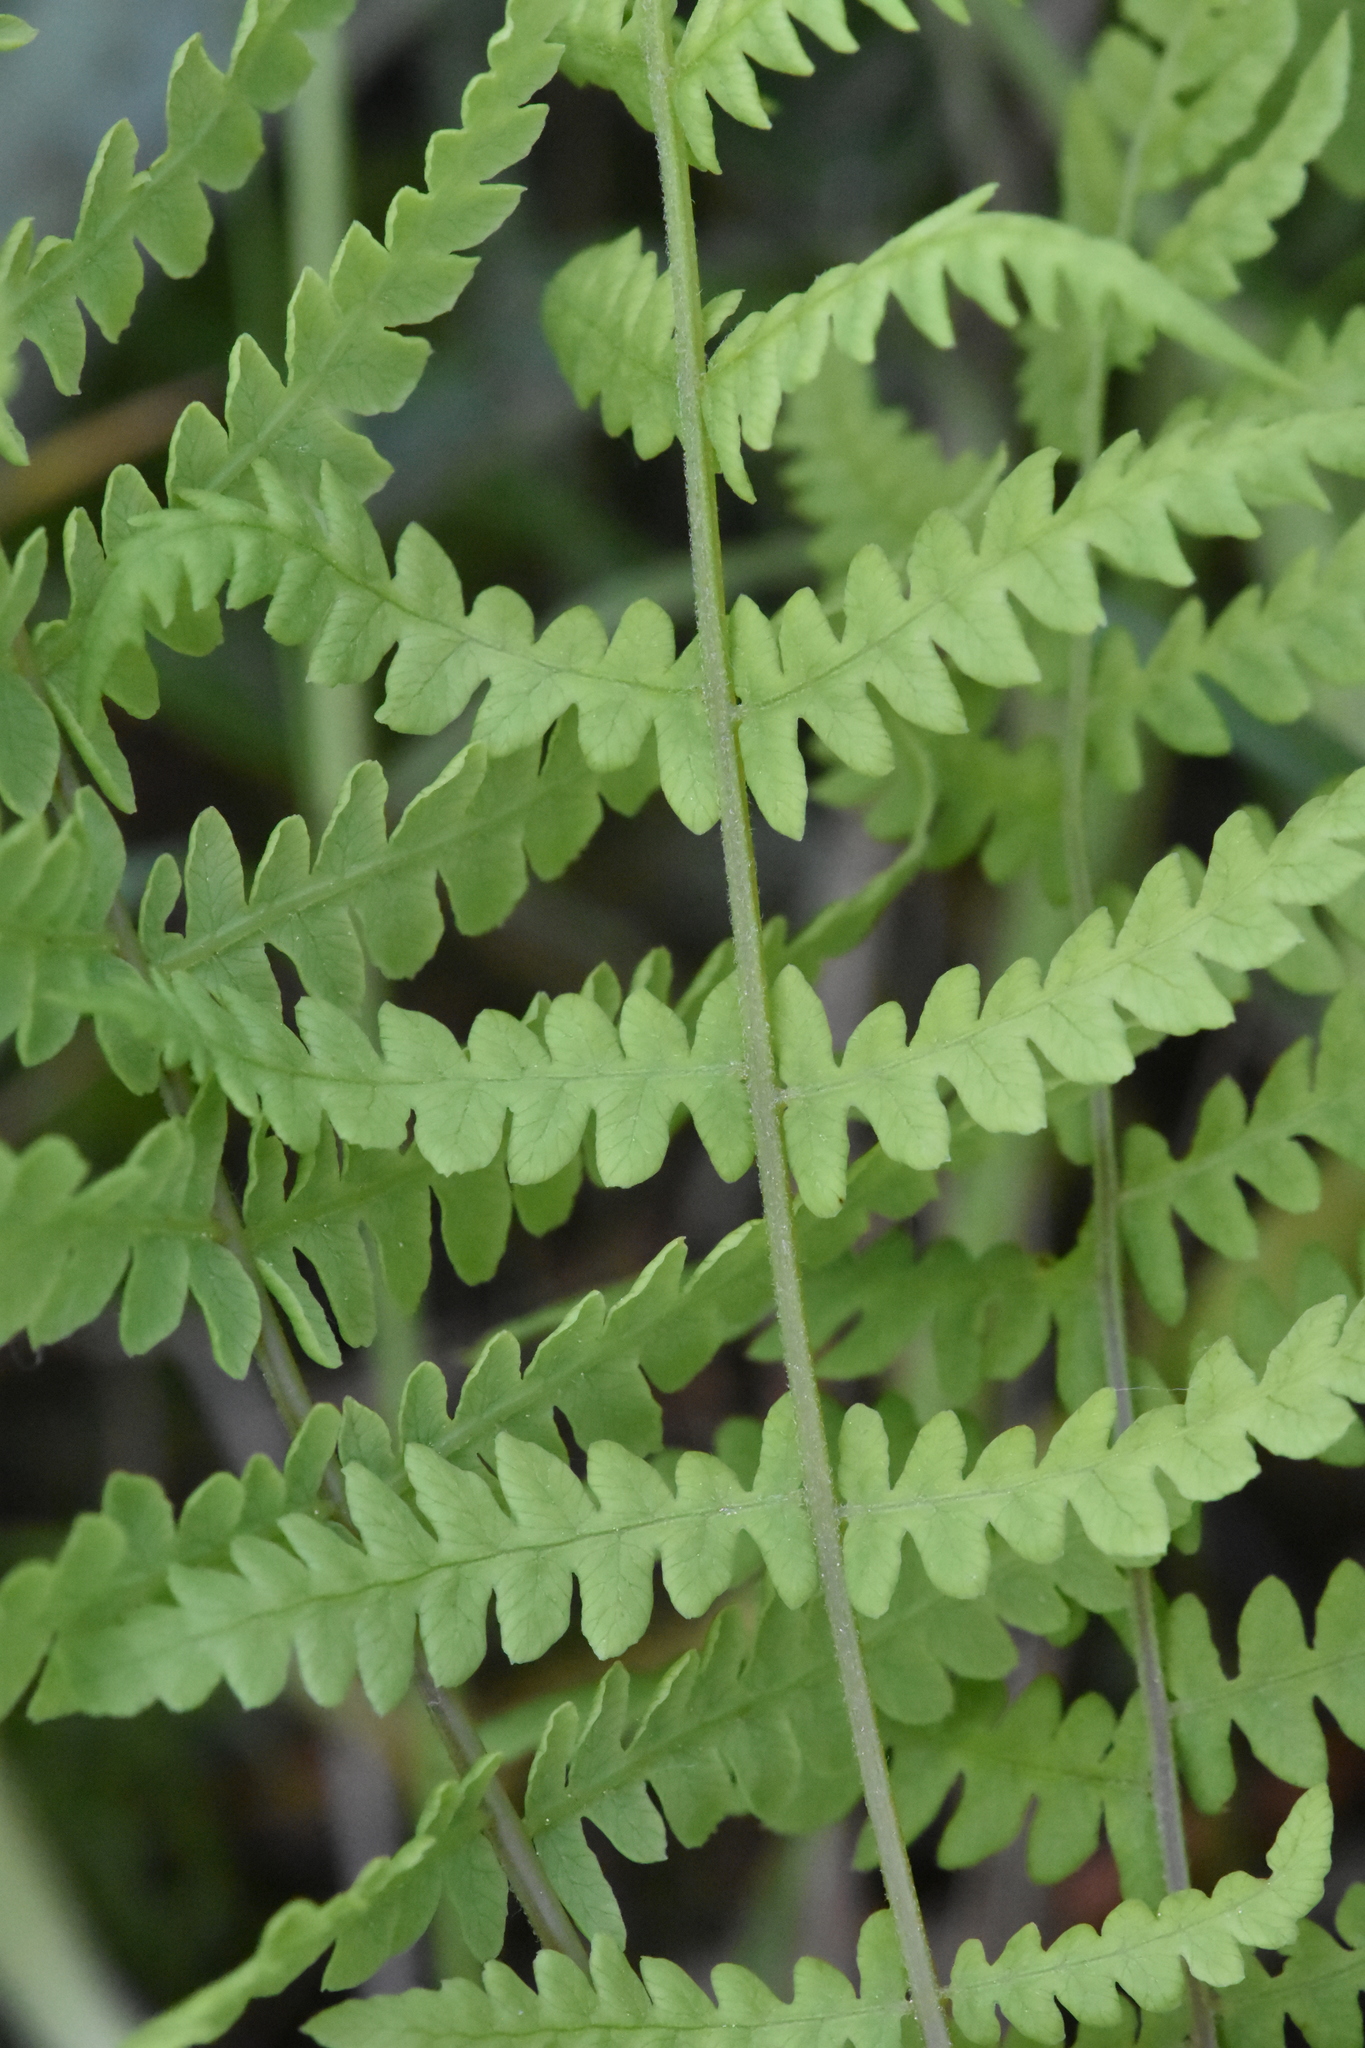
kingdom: Plantae
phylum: Tracheophyta
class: Polypodiopsida
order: Polypodiales
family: Thelypteridaceae
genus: Thelypteris
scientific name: Thelypteris palustris
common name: Marsh fern
